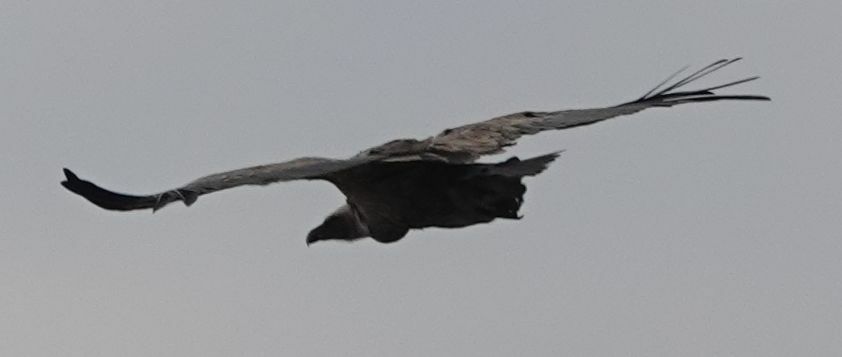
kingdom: Animalia
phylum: Chordata
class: Aves
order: Accipitriformes
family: Accipitridae
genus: Gyps
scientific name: Gyps fulvus
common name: Griffon vulture
